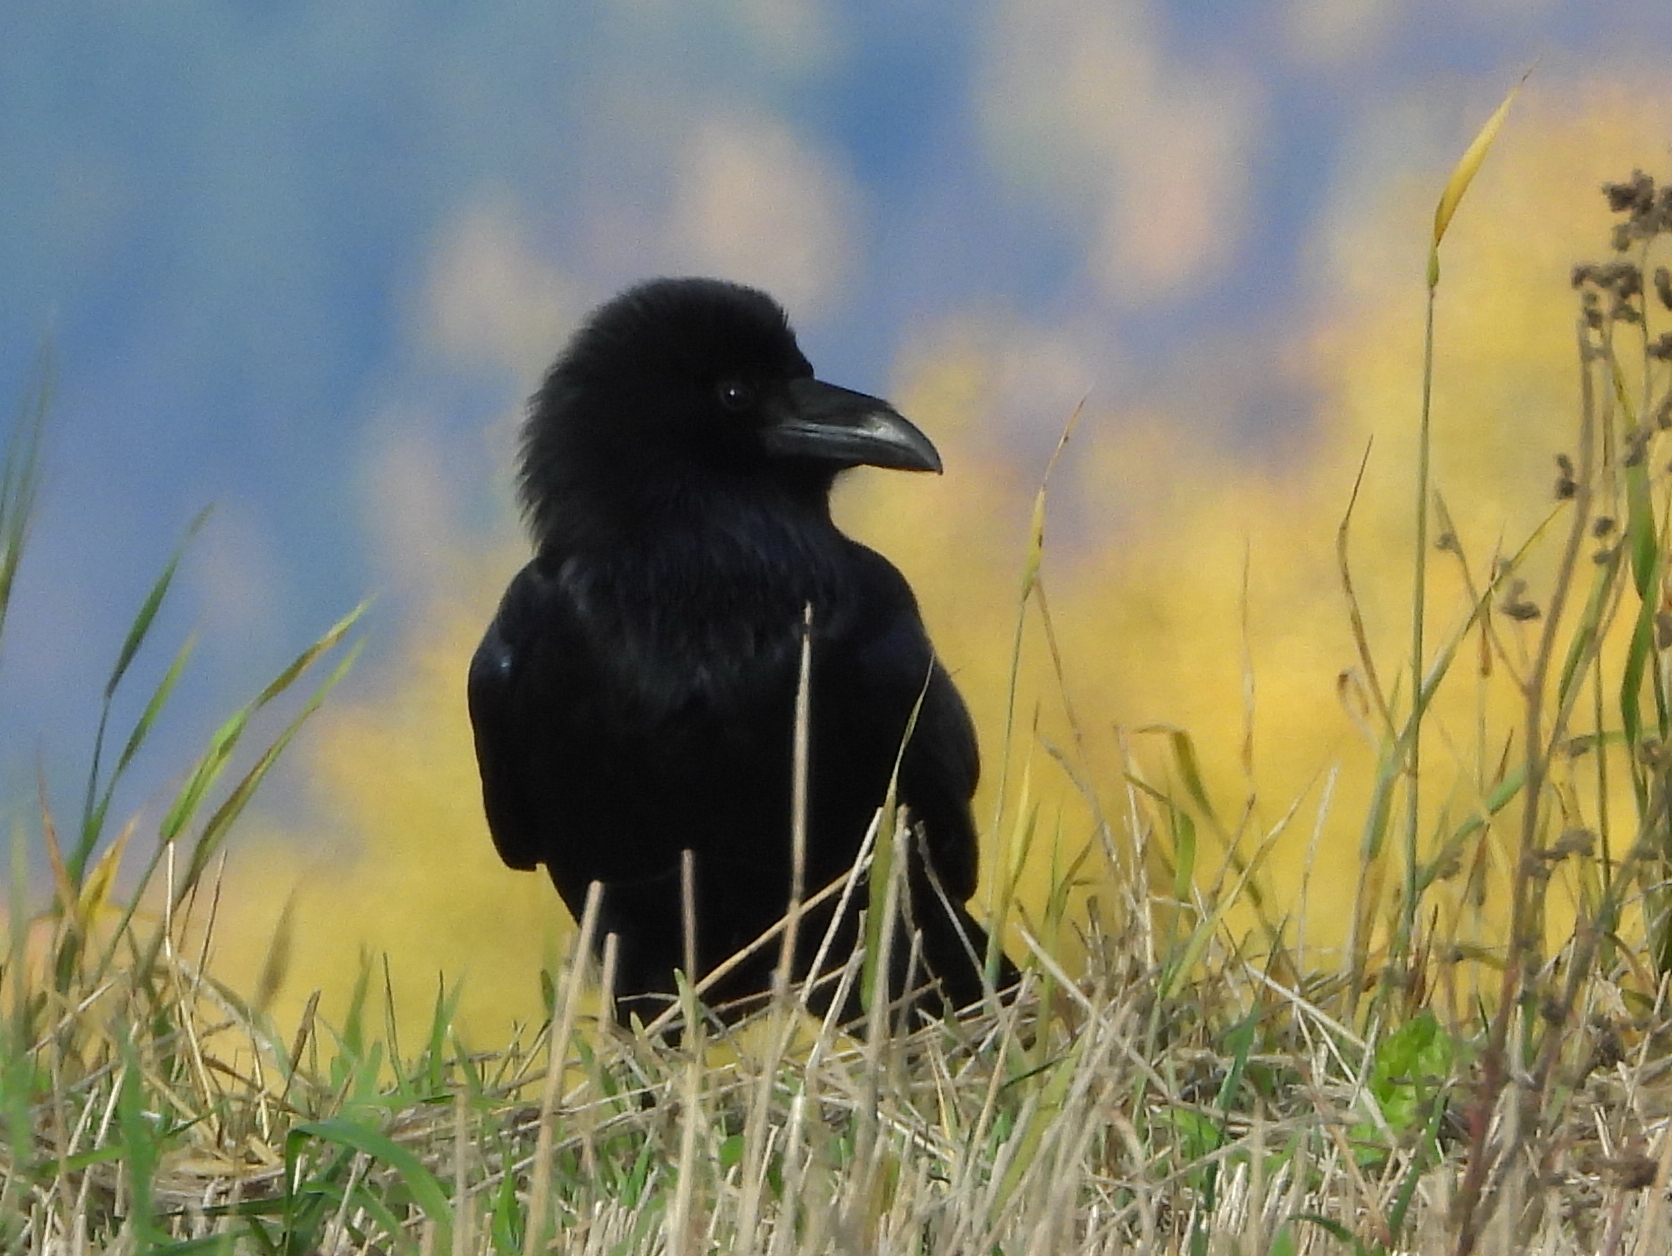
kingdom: Animalia
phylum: Chordata
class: Aves
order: Passeriformes
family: Corvidae
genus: Corvus
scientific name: Corvus corax
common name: Common raven
